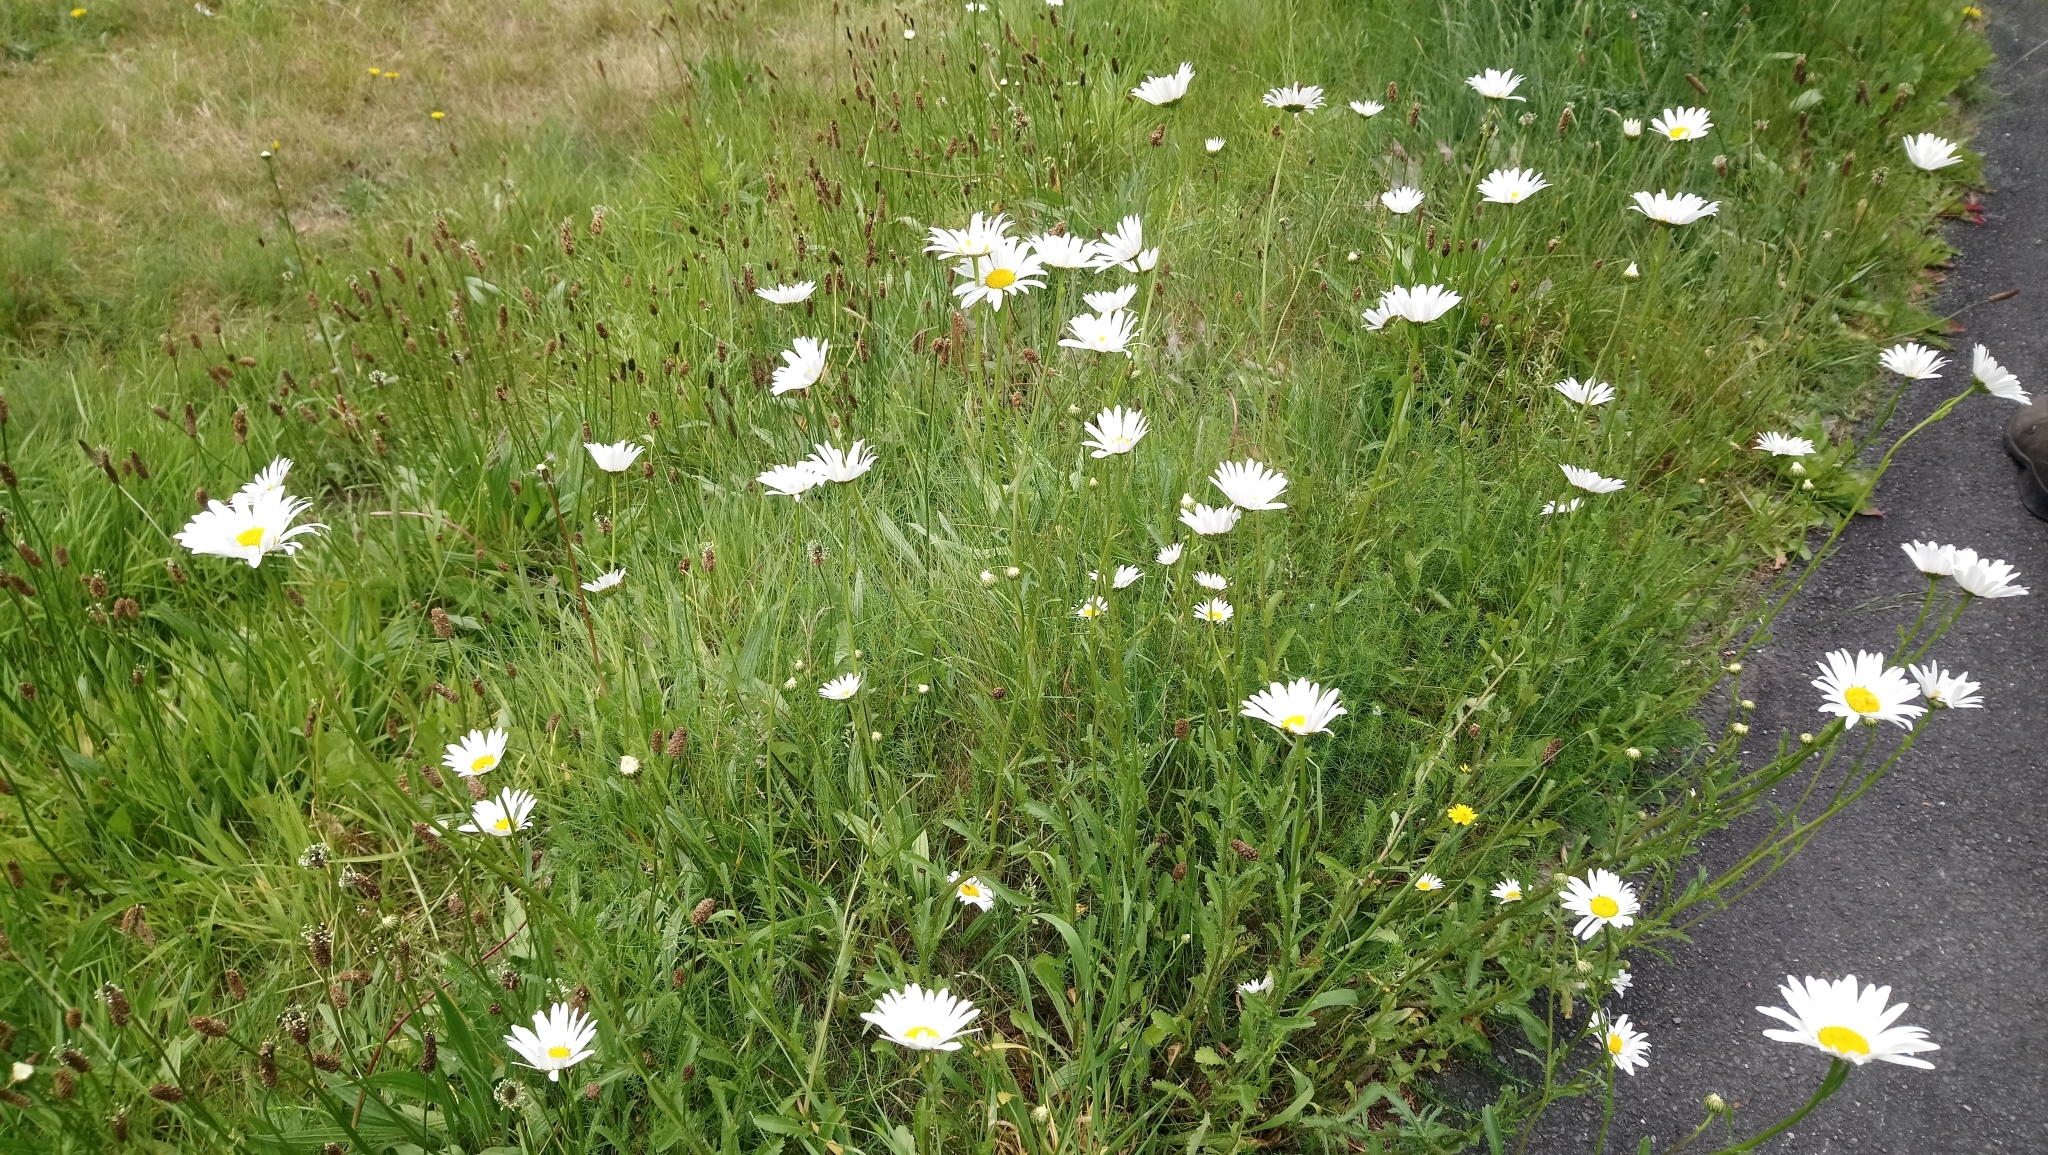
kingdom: Plantae
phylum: Tracheophyta
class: Magnoliopsida
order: Asterales
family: Asteraceae
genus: Leucanthemum
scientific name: Leucanthemum vulgare
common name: Oxeye daisy
